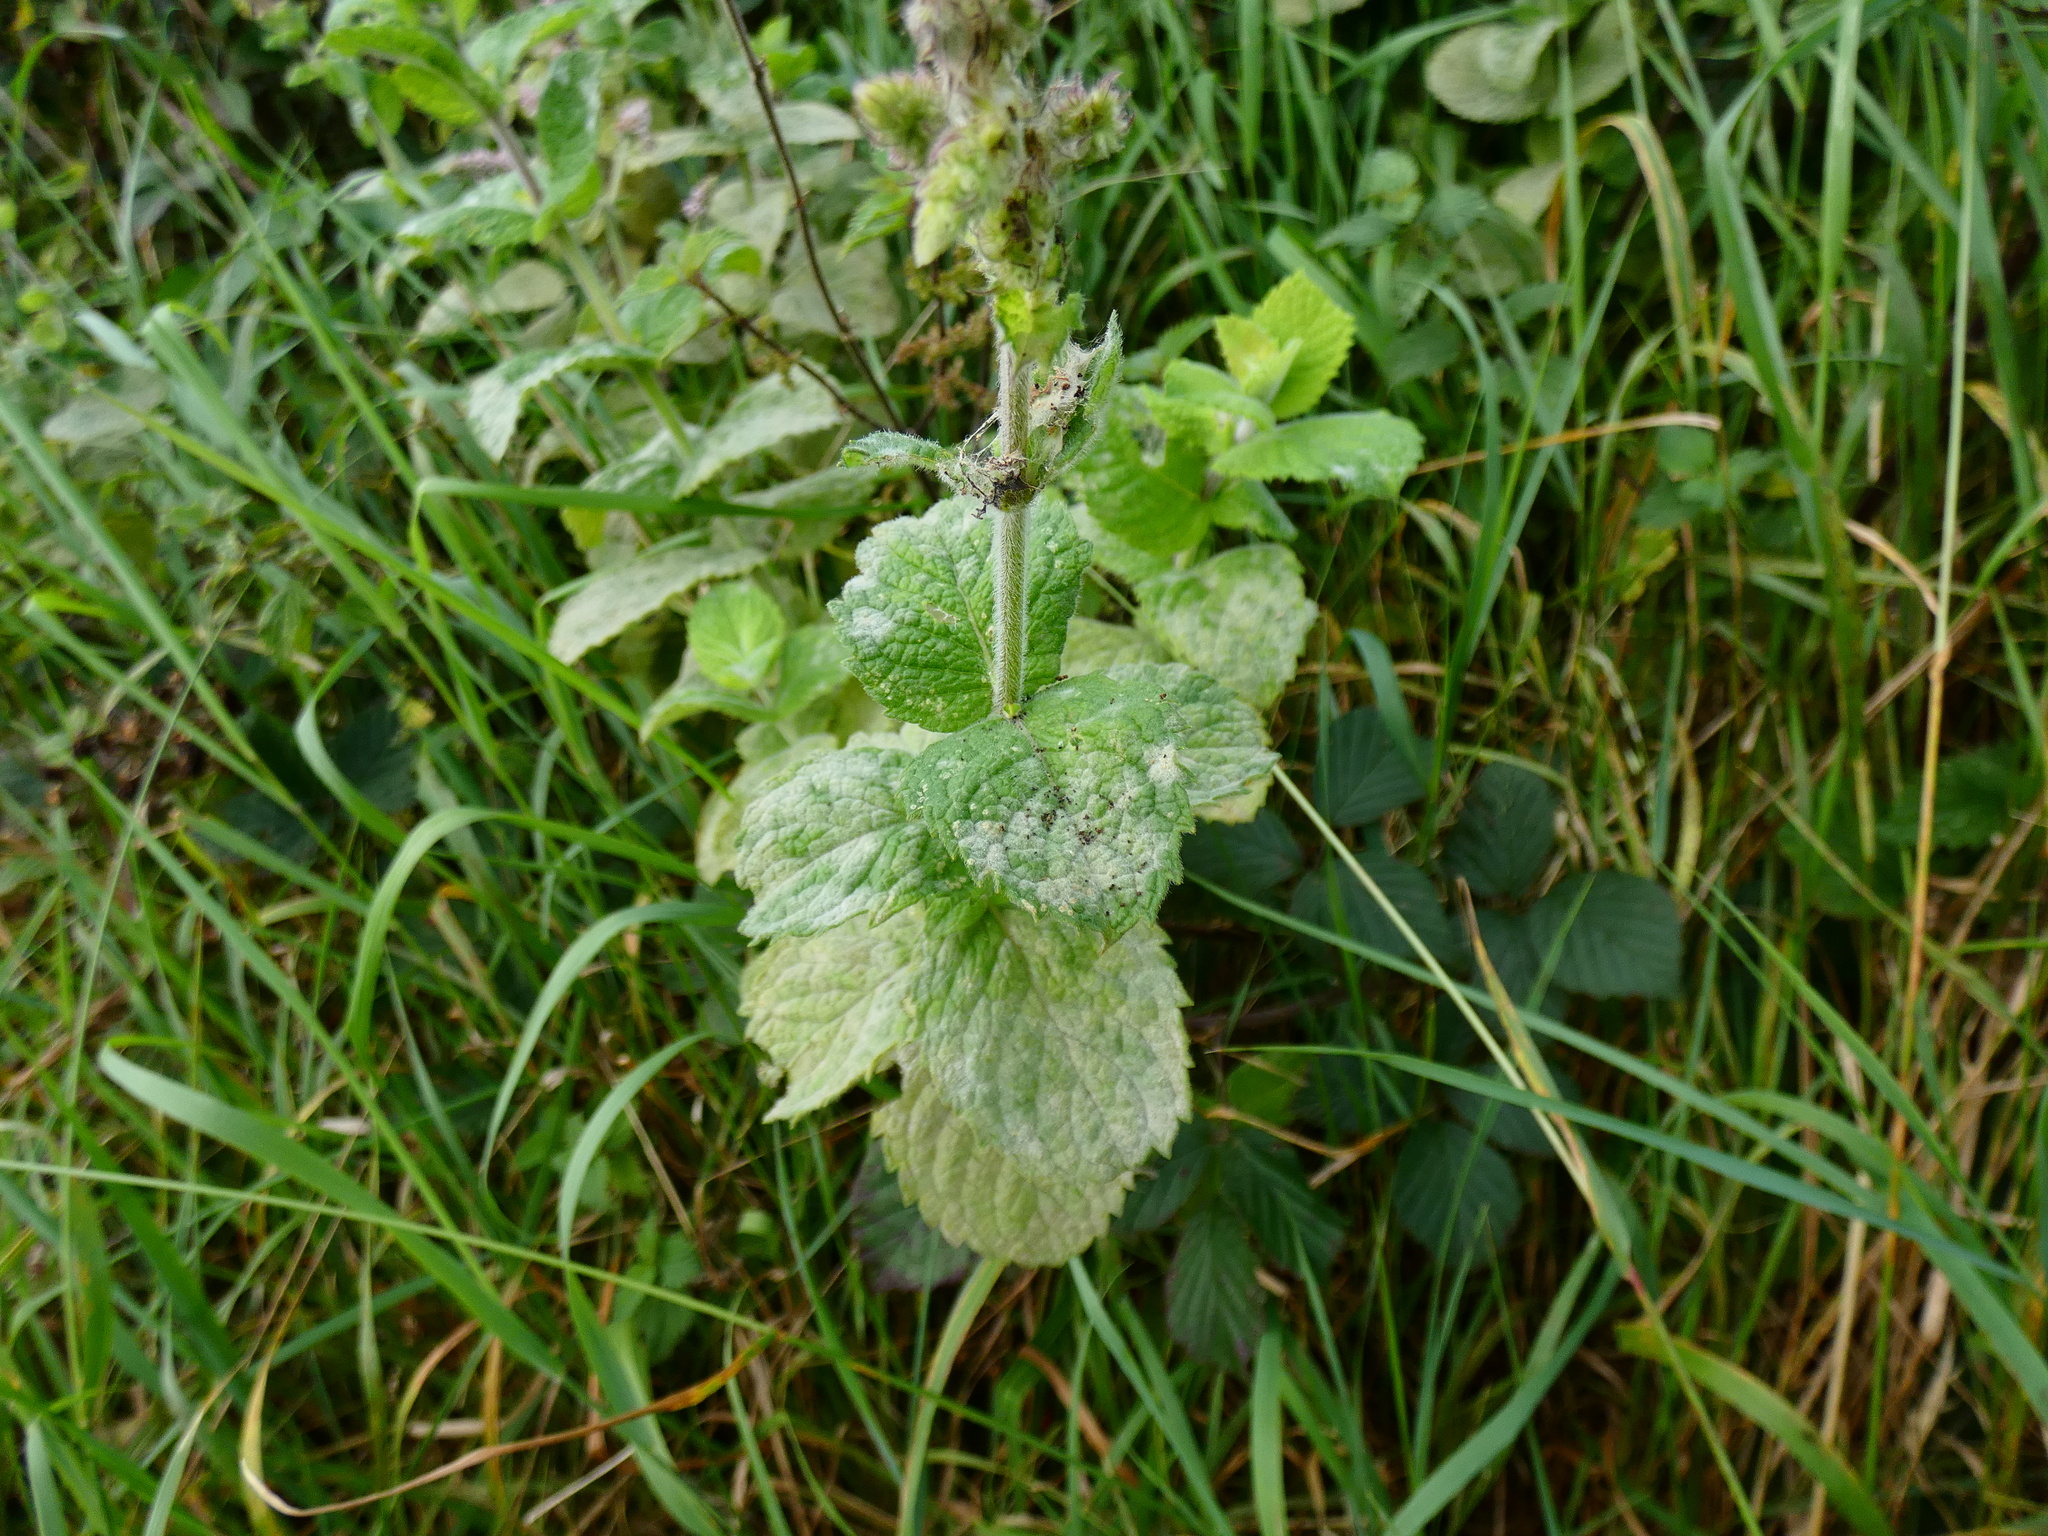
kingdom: Fungi
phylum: Ascomycota
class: Leotiomycetes
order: Helotiales
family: Erysiphaceae
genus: Golovinomyces
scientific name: Golovinomyces monardae
